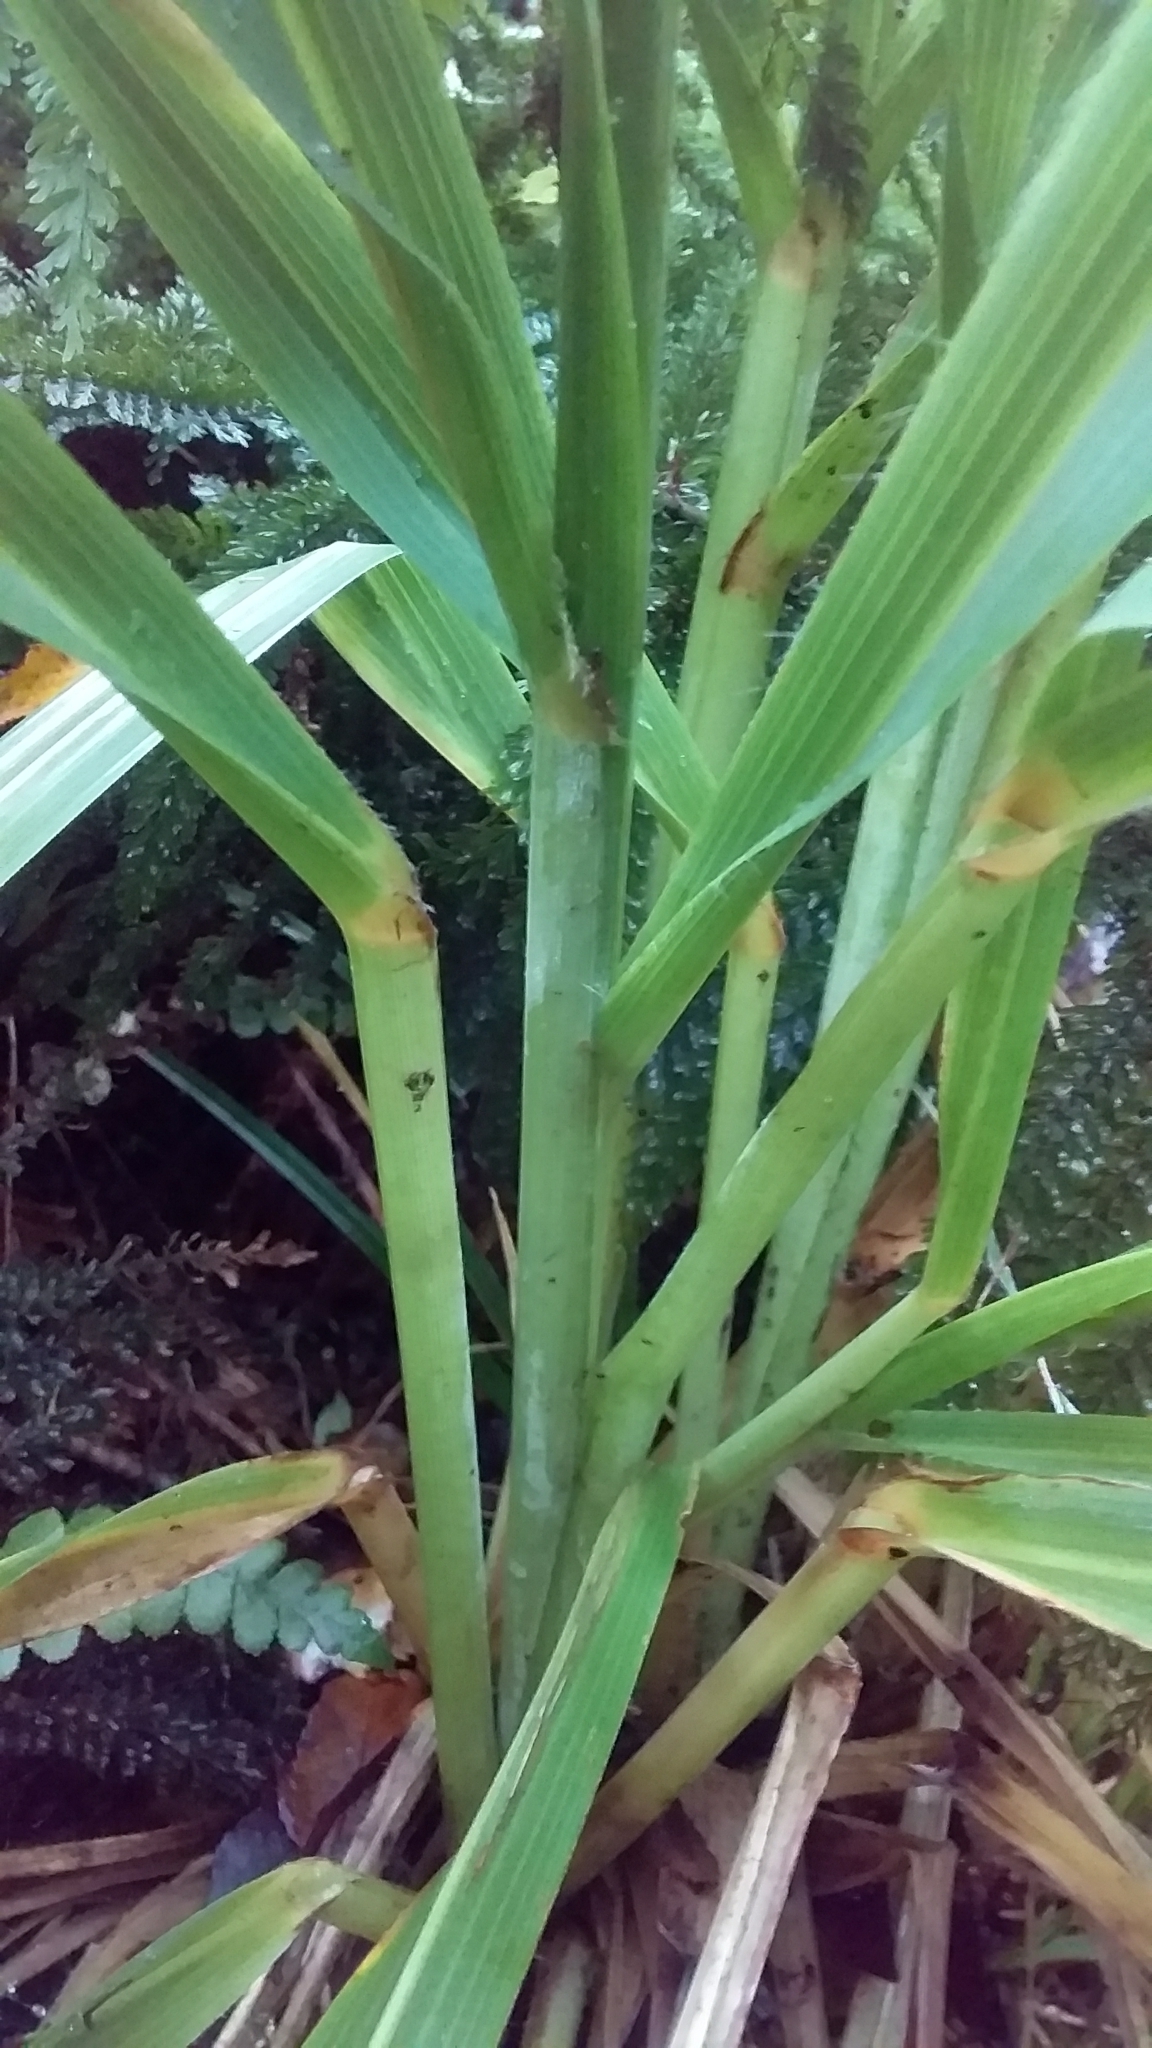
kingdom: Plantae
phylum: Tracheophyta
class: Liliopsida
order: Poales
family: Poaceae
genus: Austroderia
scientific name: Austroderia fulvida
